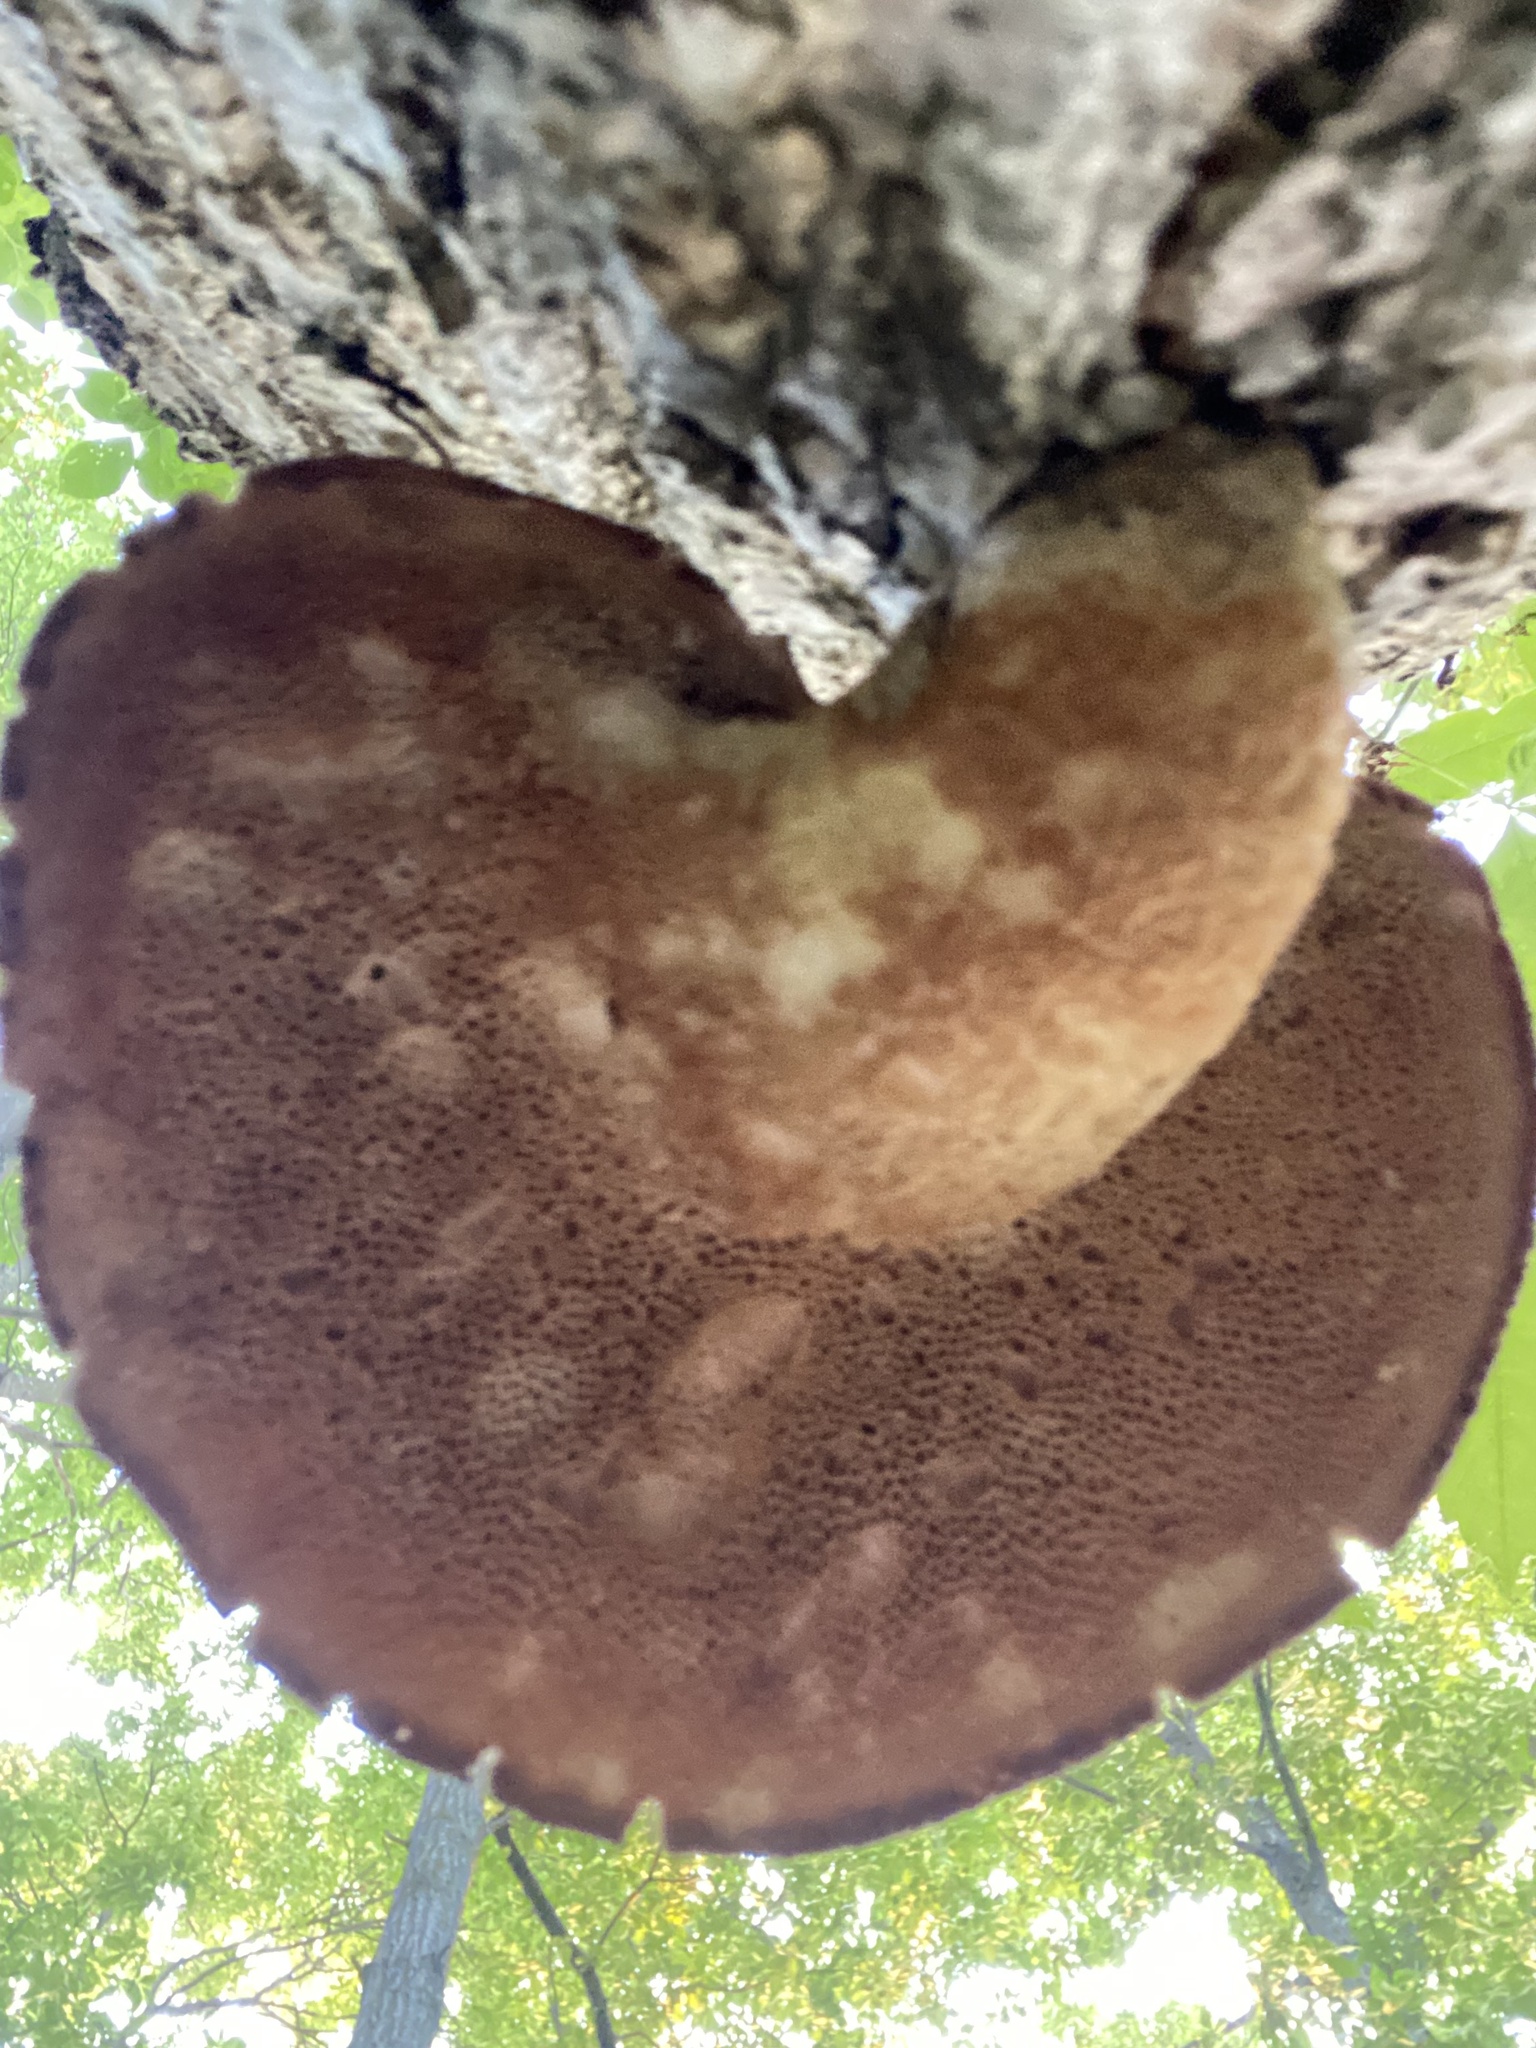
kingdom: Fungi
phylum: Basidiomycota
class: Agaricomycetes
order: Polyporales
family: Polyporaceae
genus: Cerioporus
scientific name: Cerioporus squamosus
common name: Dryad's saddle
